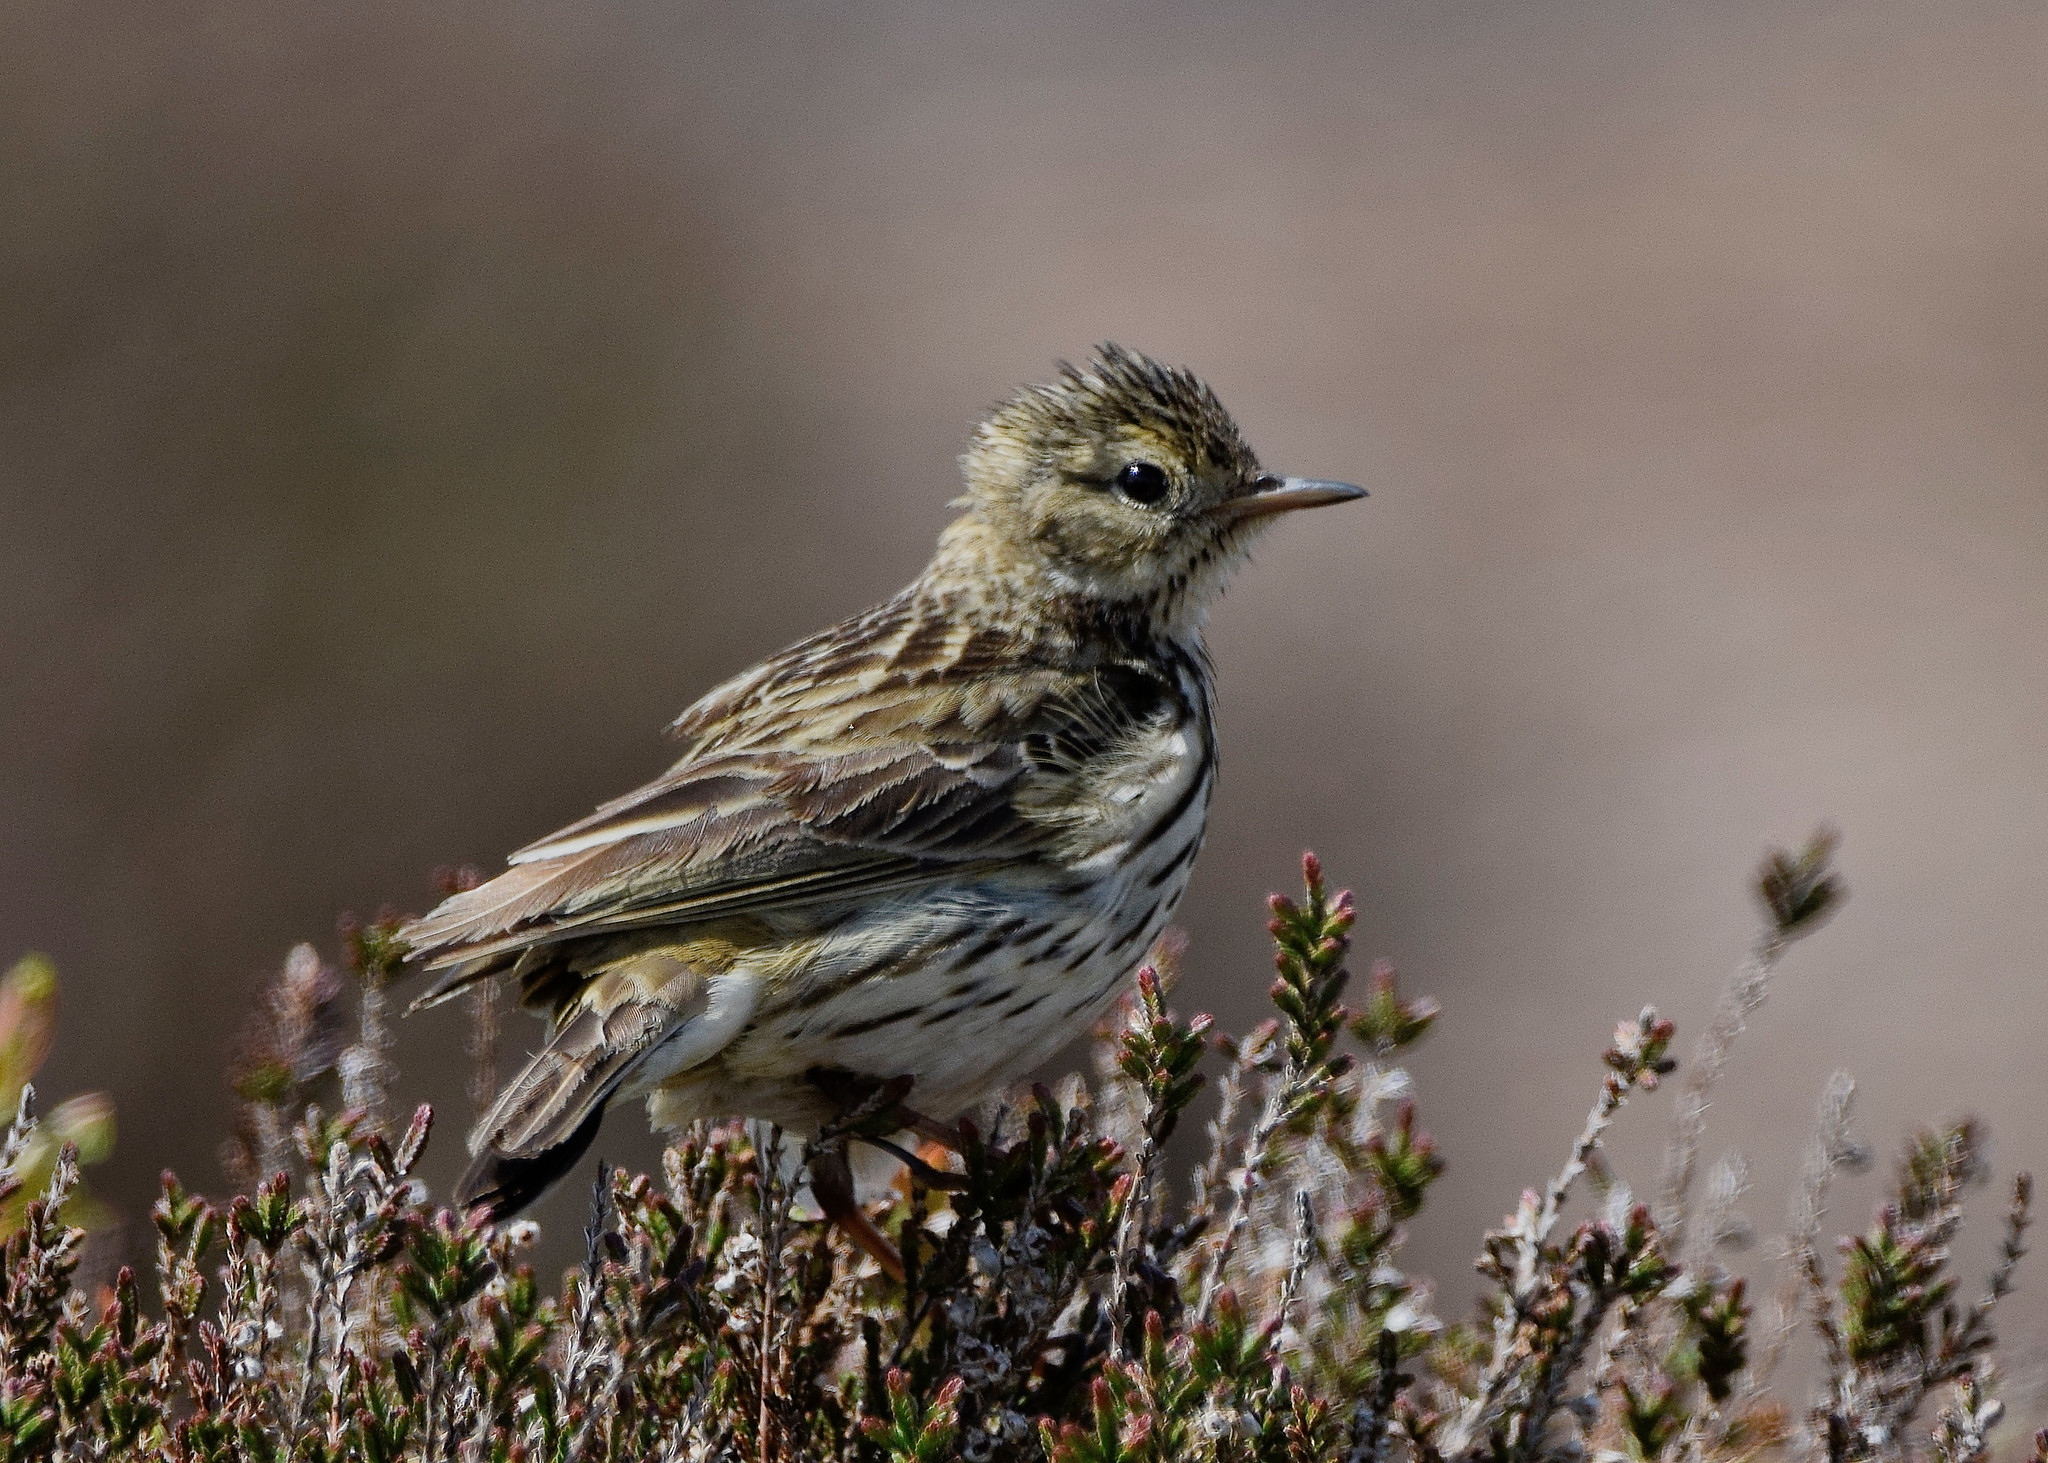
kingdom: Animalia
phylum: Chordata
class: Aves
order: Passeriformes
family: Motacillidae
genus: Anthus
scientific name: Anthus pratensis
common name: Meadow pipit
